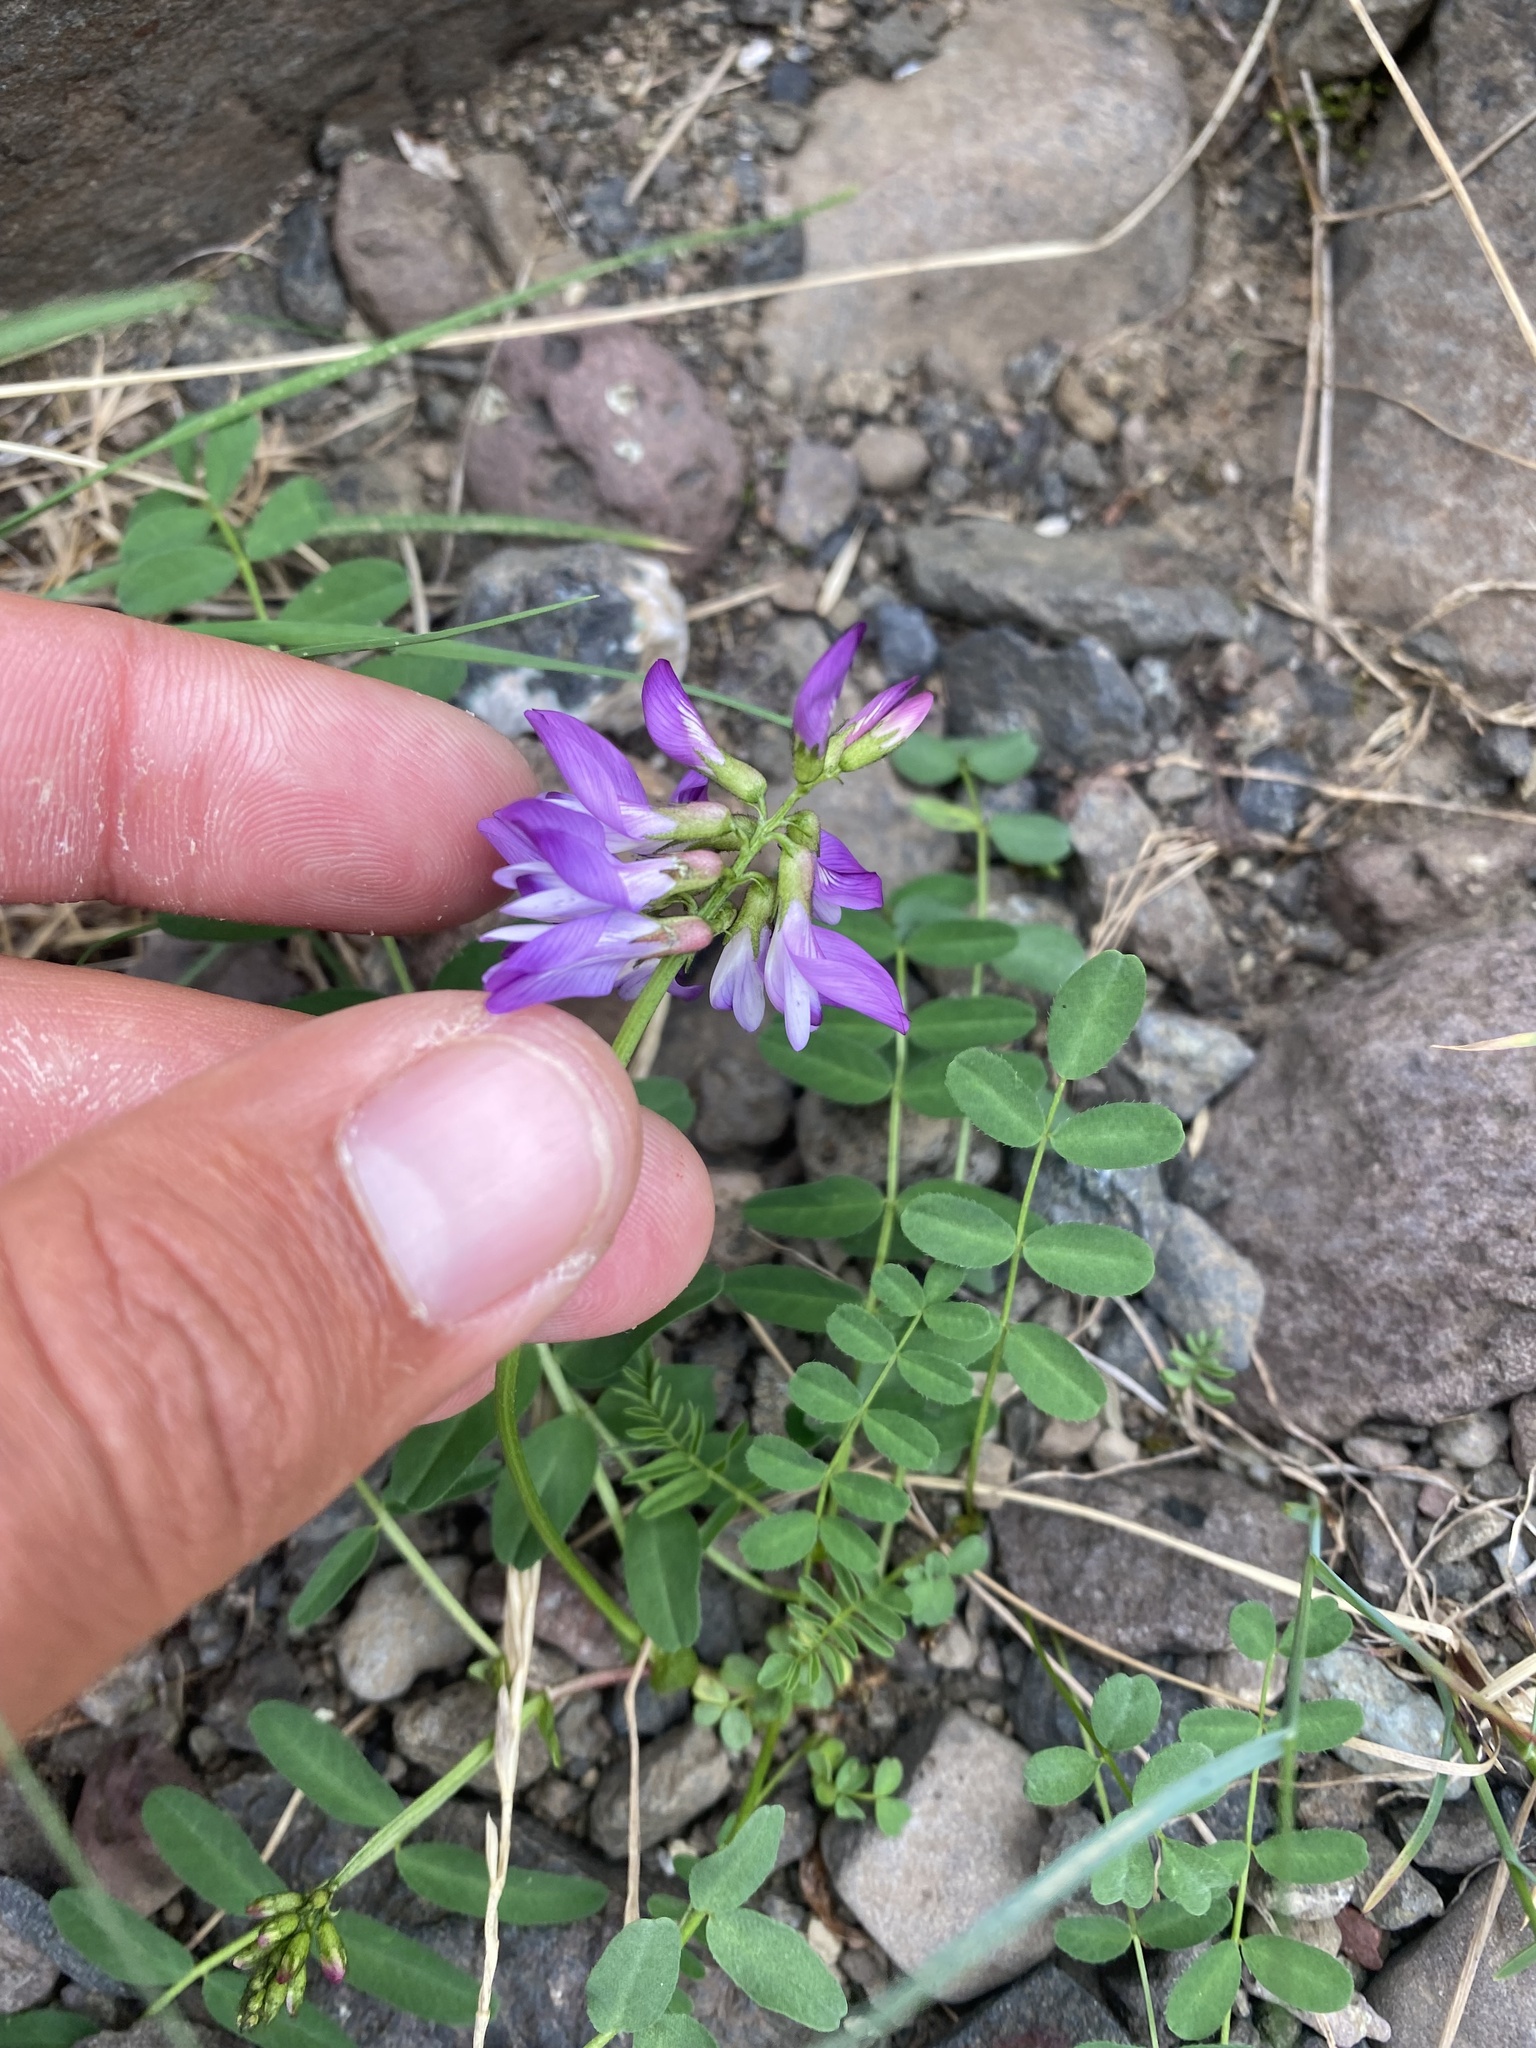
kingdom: Plantae
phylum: Tracheophyta
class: Magnoliopsida
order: Fabales
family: Fabaceae
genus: Astragalus
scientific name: Astragalus alpinus
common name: Alpine milk-vetch
